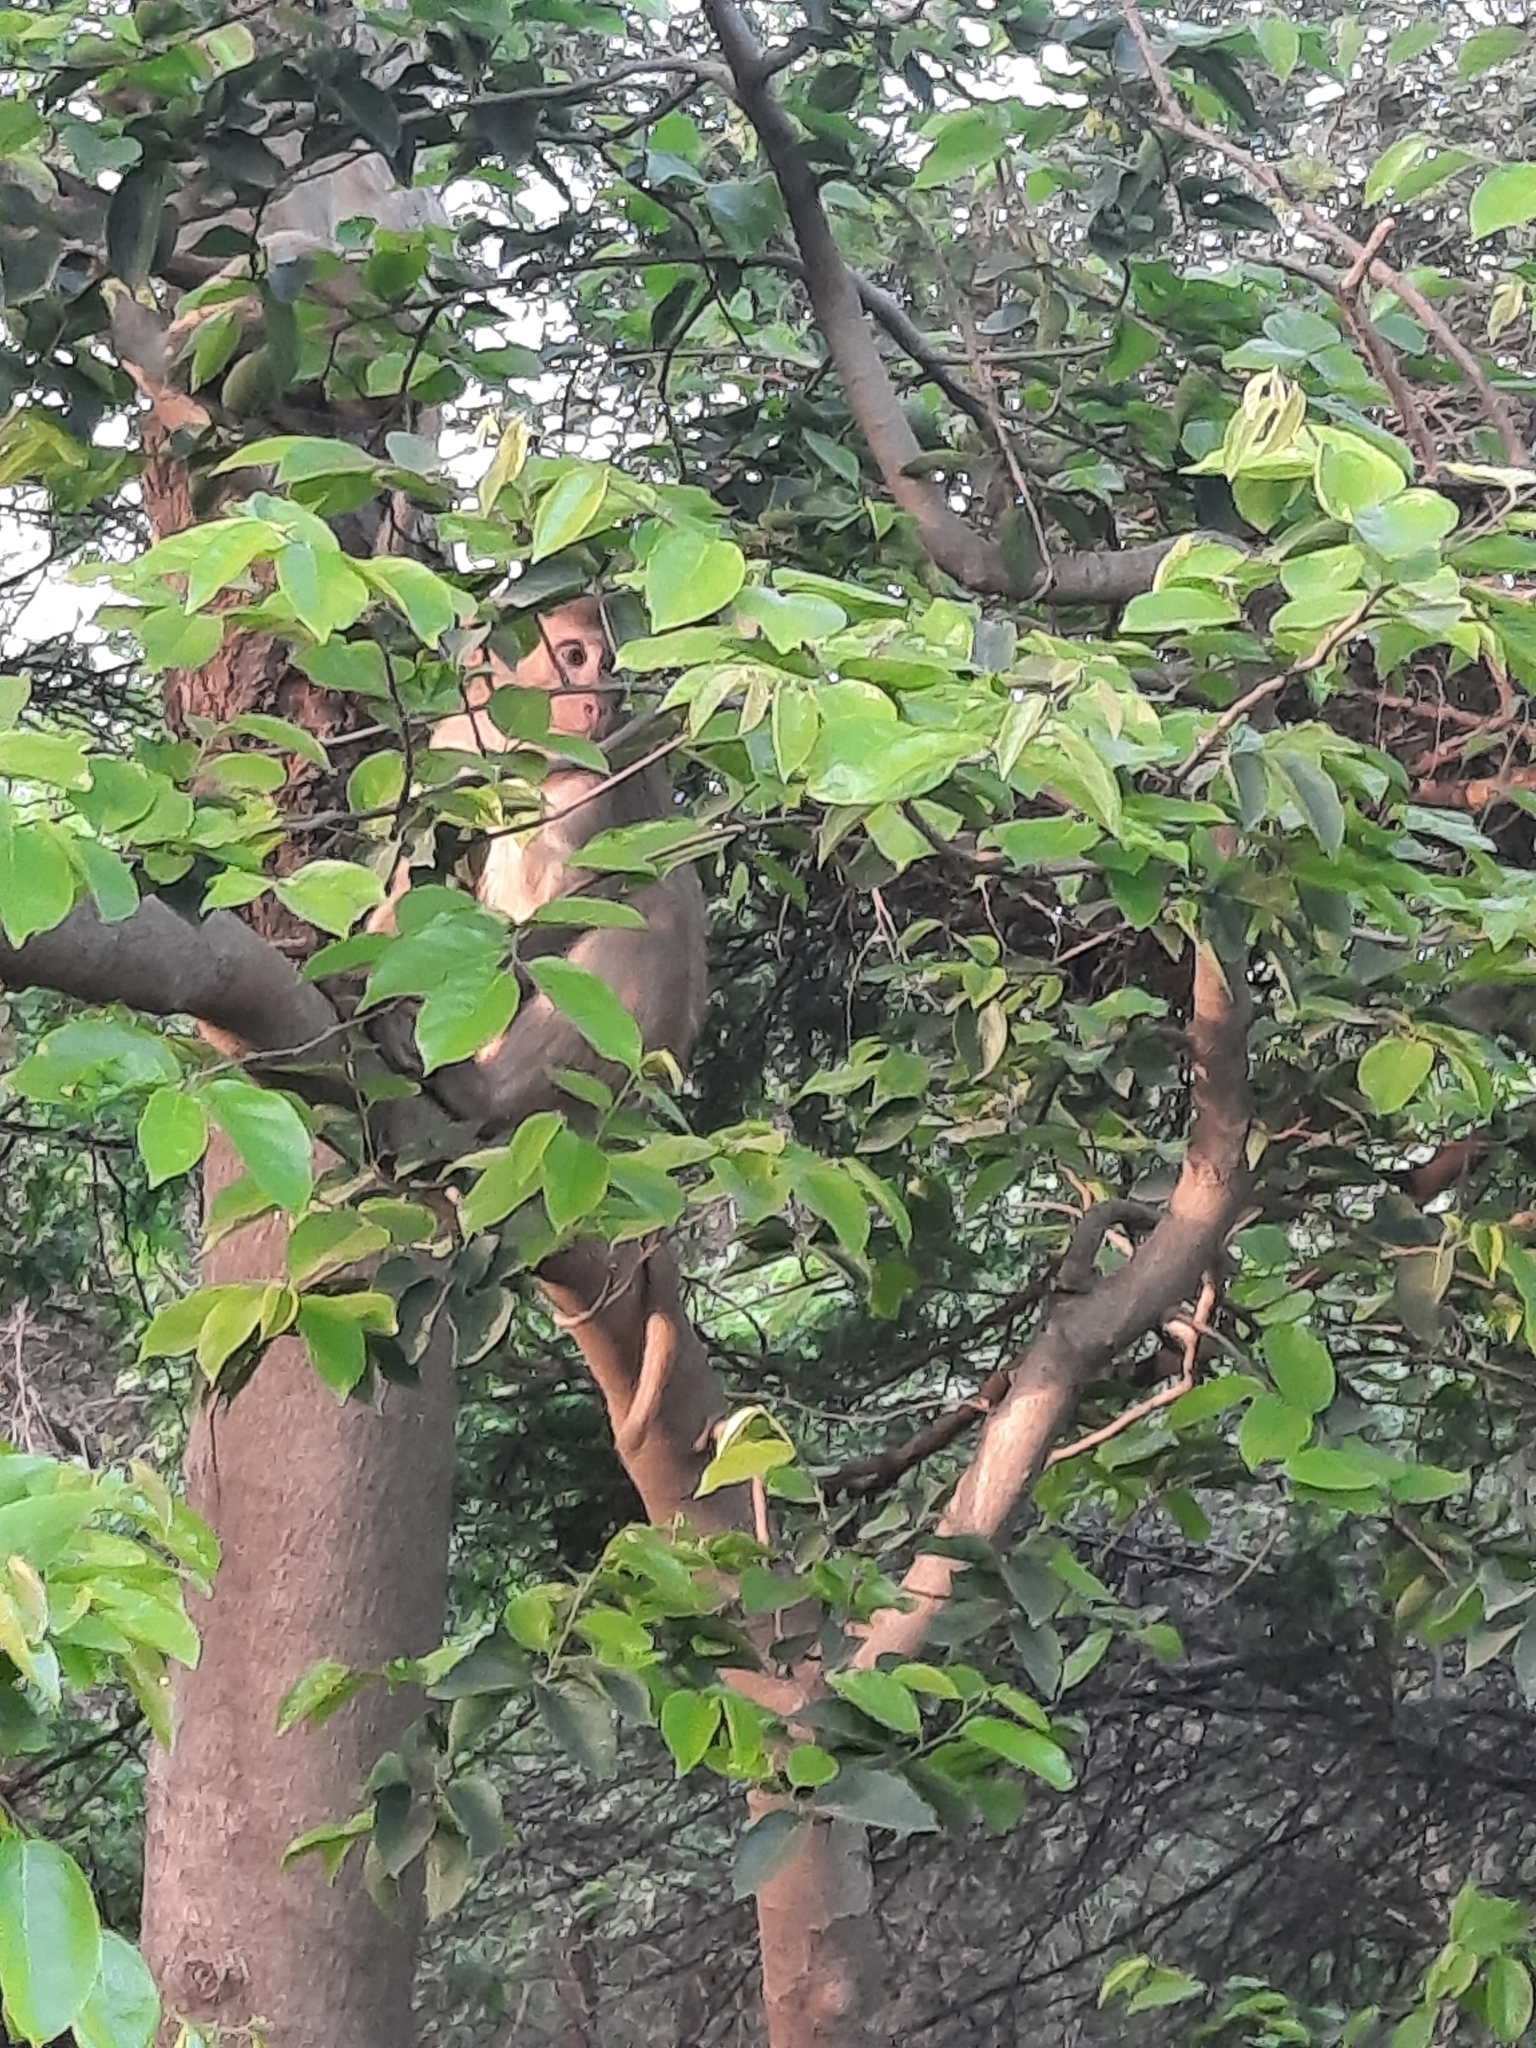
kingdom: Animalia
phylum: Chordata
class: Mammalia
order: Primates
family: Cercopithecidae
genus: Macaca
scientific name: Macaca mulatta
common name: Rhesus monkey
